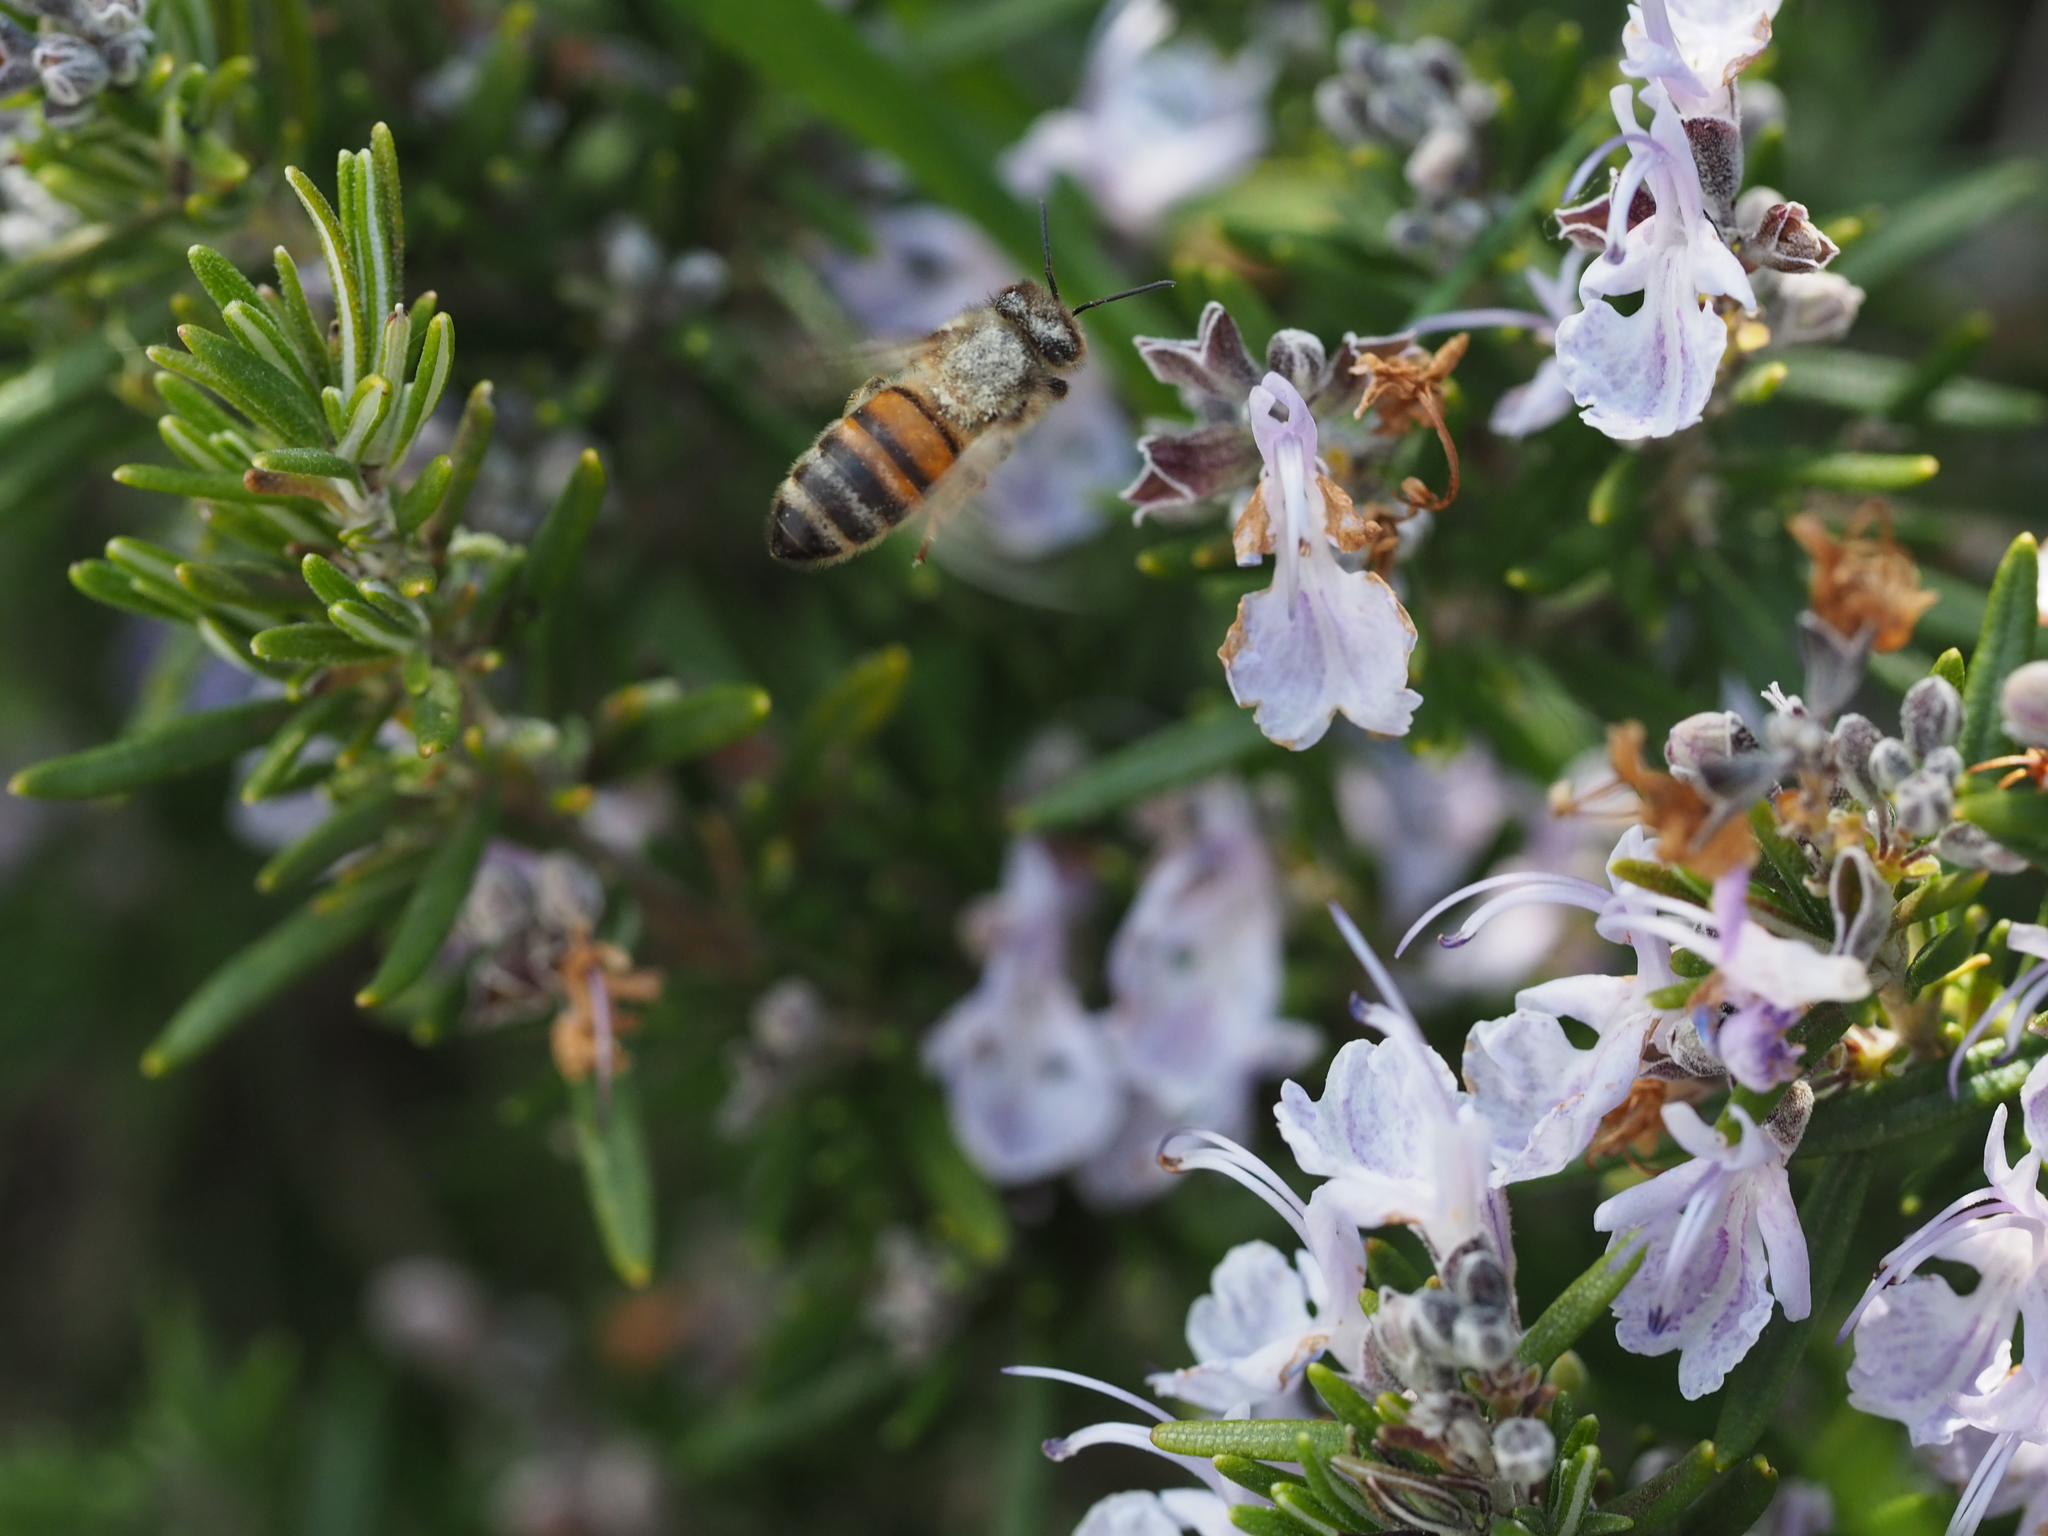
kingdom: Animalia
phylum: Arthropoda
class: Insecta
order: Hymenoptera
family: Apidae
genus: Apis
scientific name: Apis mellifera
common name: Honey bee
